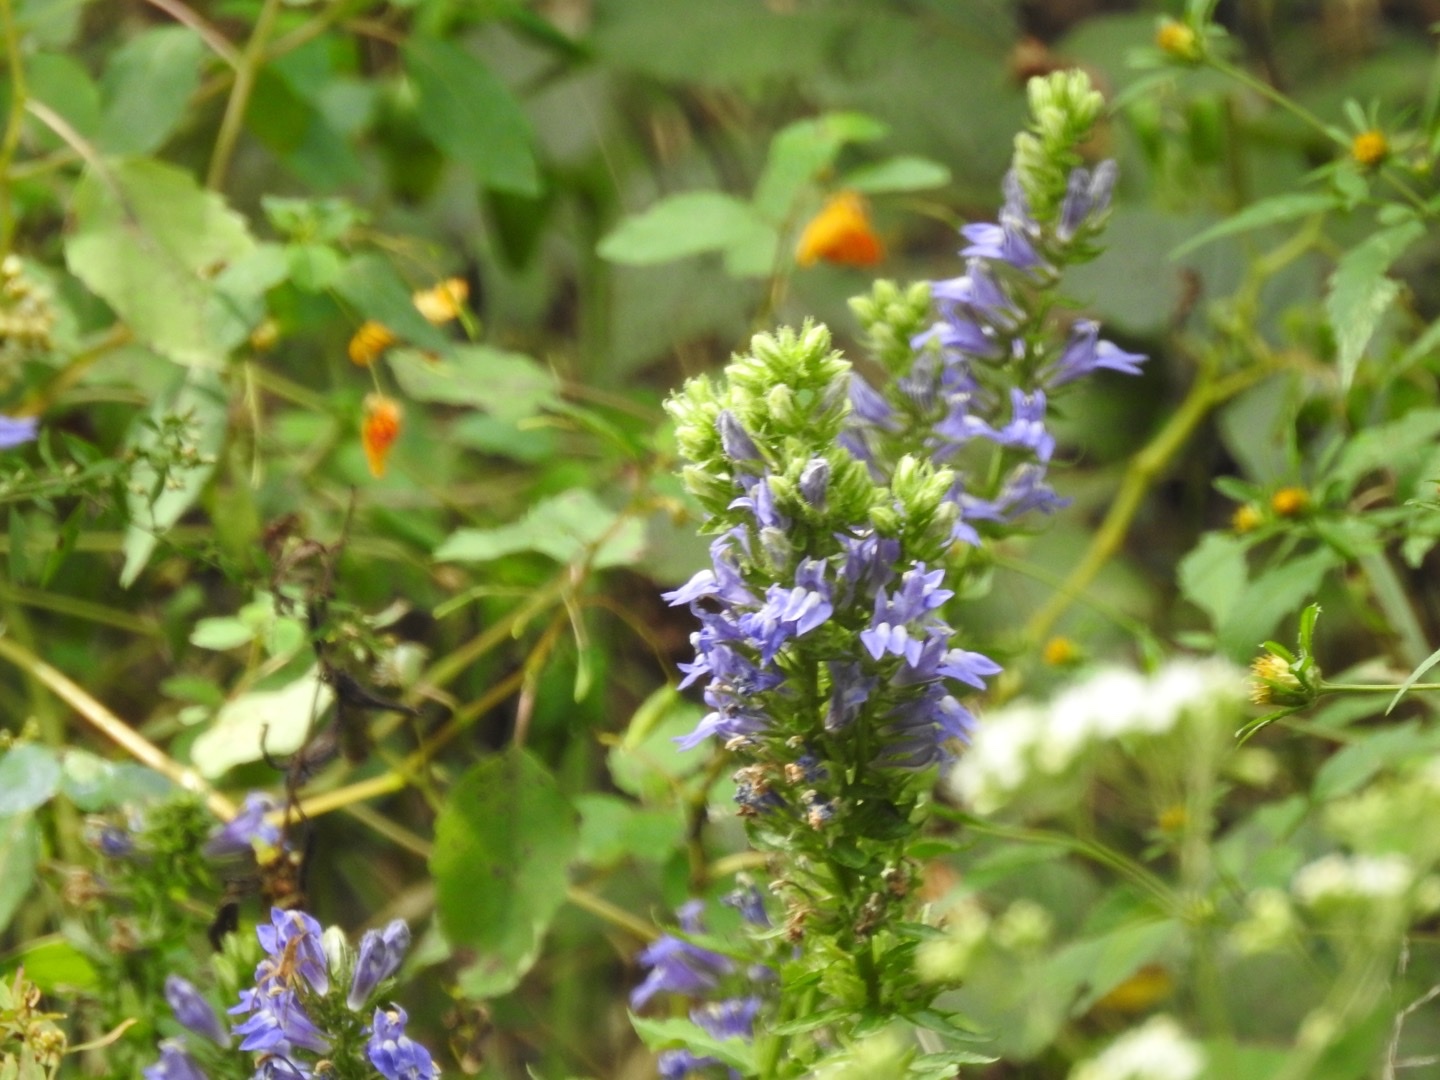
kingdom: Plantae
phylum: Tracheophyta
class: Magnoliopsida
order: Asterales
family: Campanulaceae
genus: Lobelia
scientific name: Lobelia siphilitica
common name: Great lobelia
